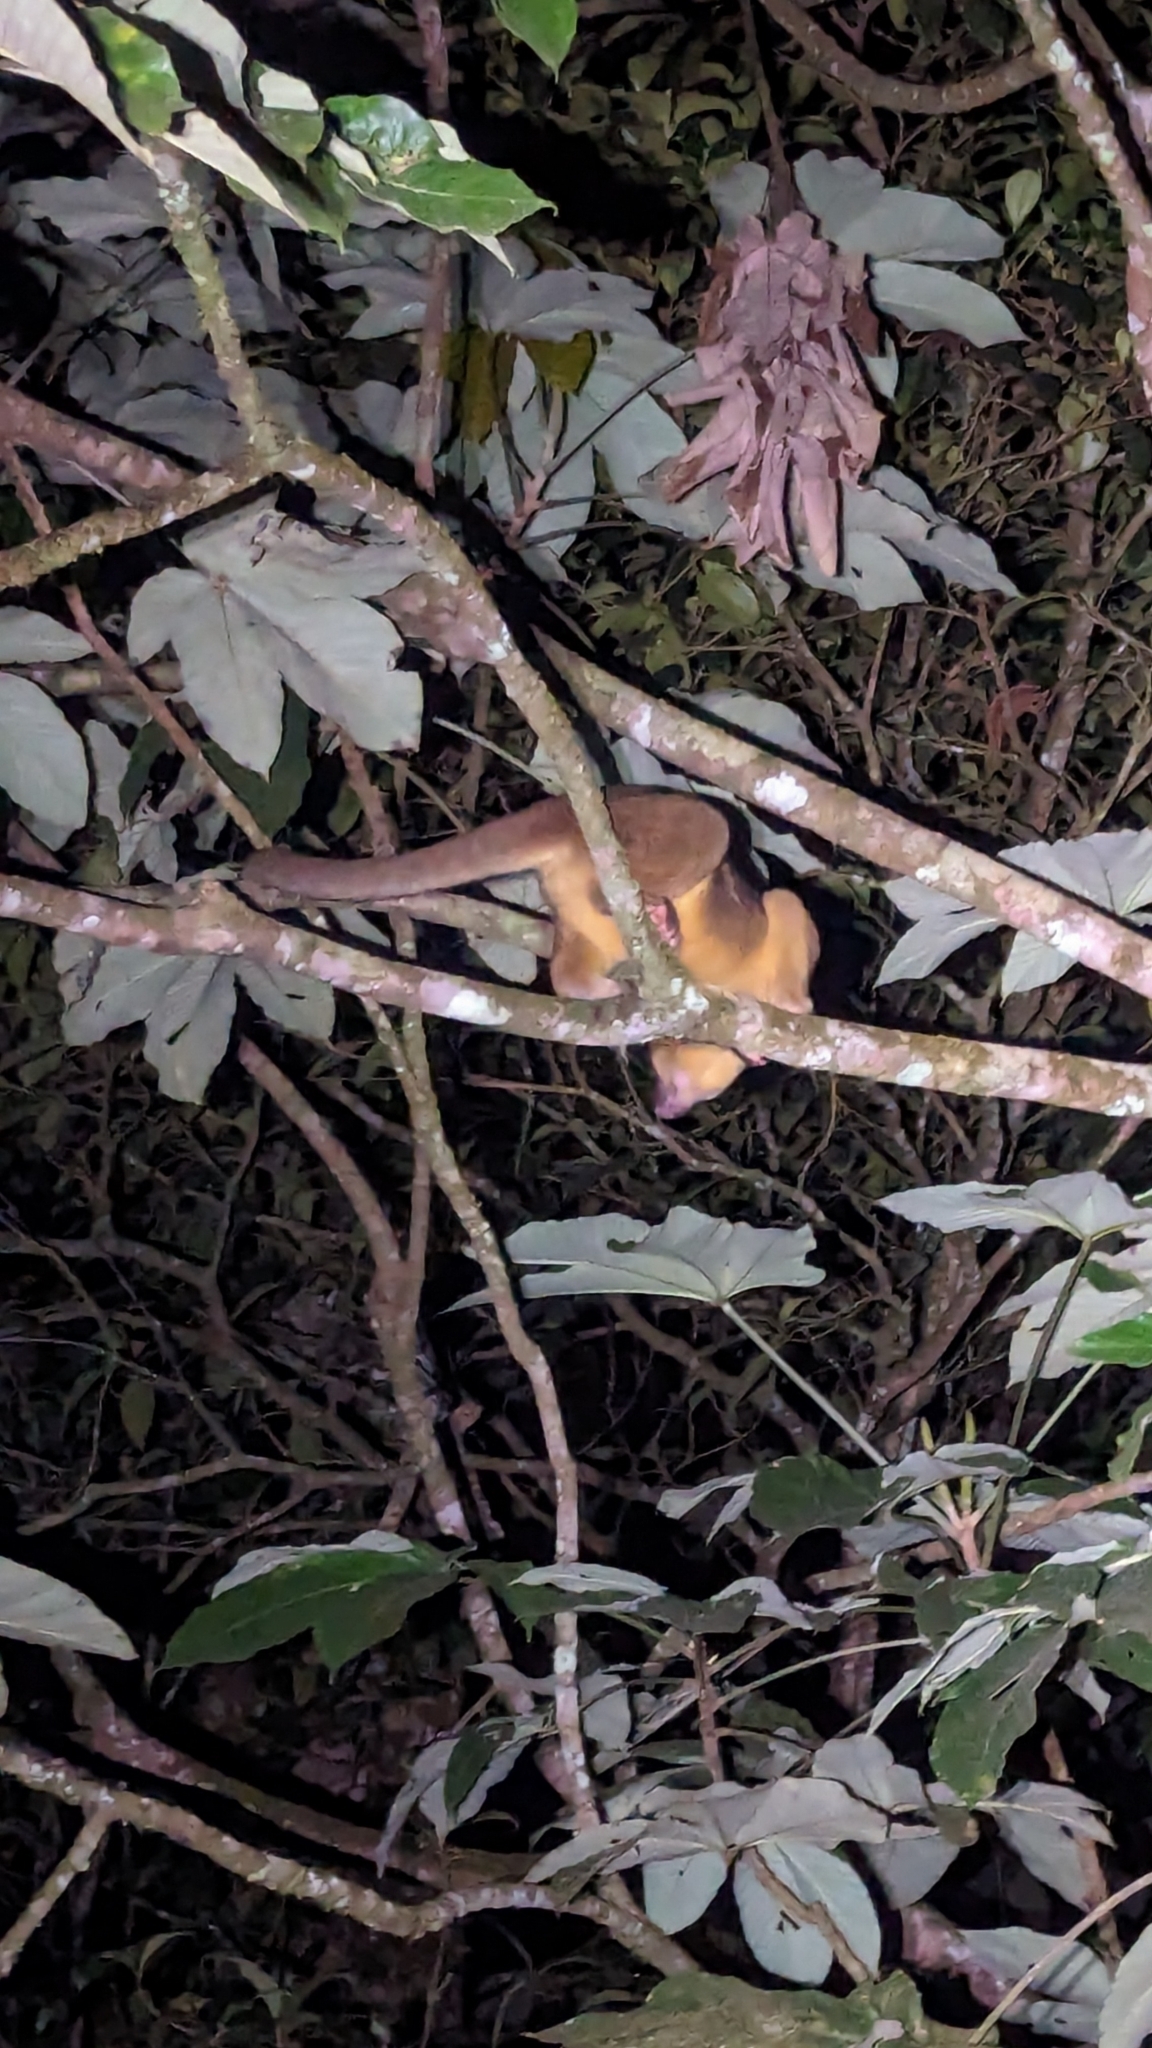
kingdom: Animalia
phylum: Chordata
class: Mammalia
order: Carnivora
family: Procyonidae
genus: Potos
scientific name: Potos flavus
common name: Kinkajou
